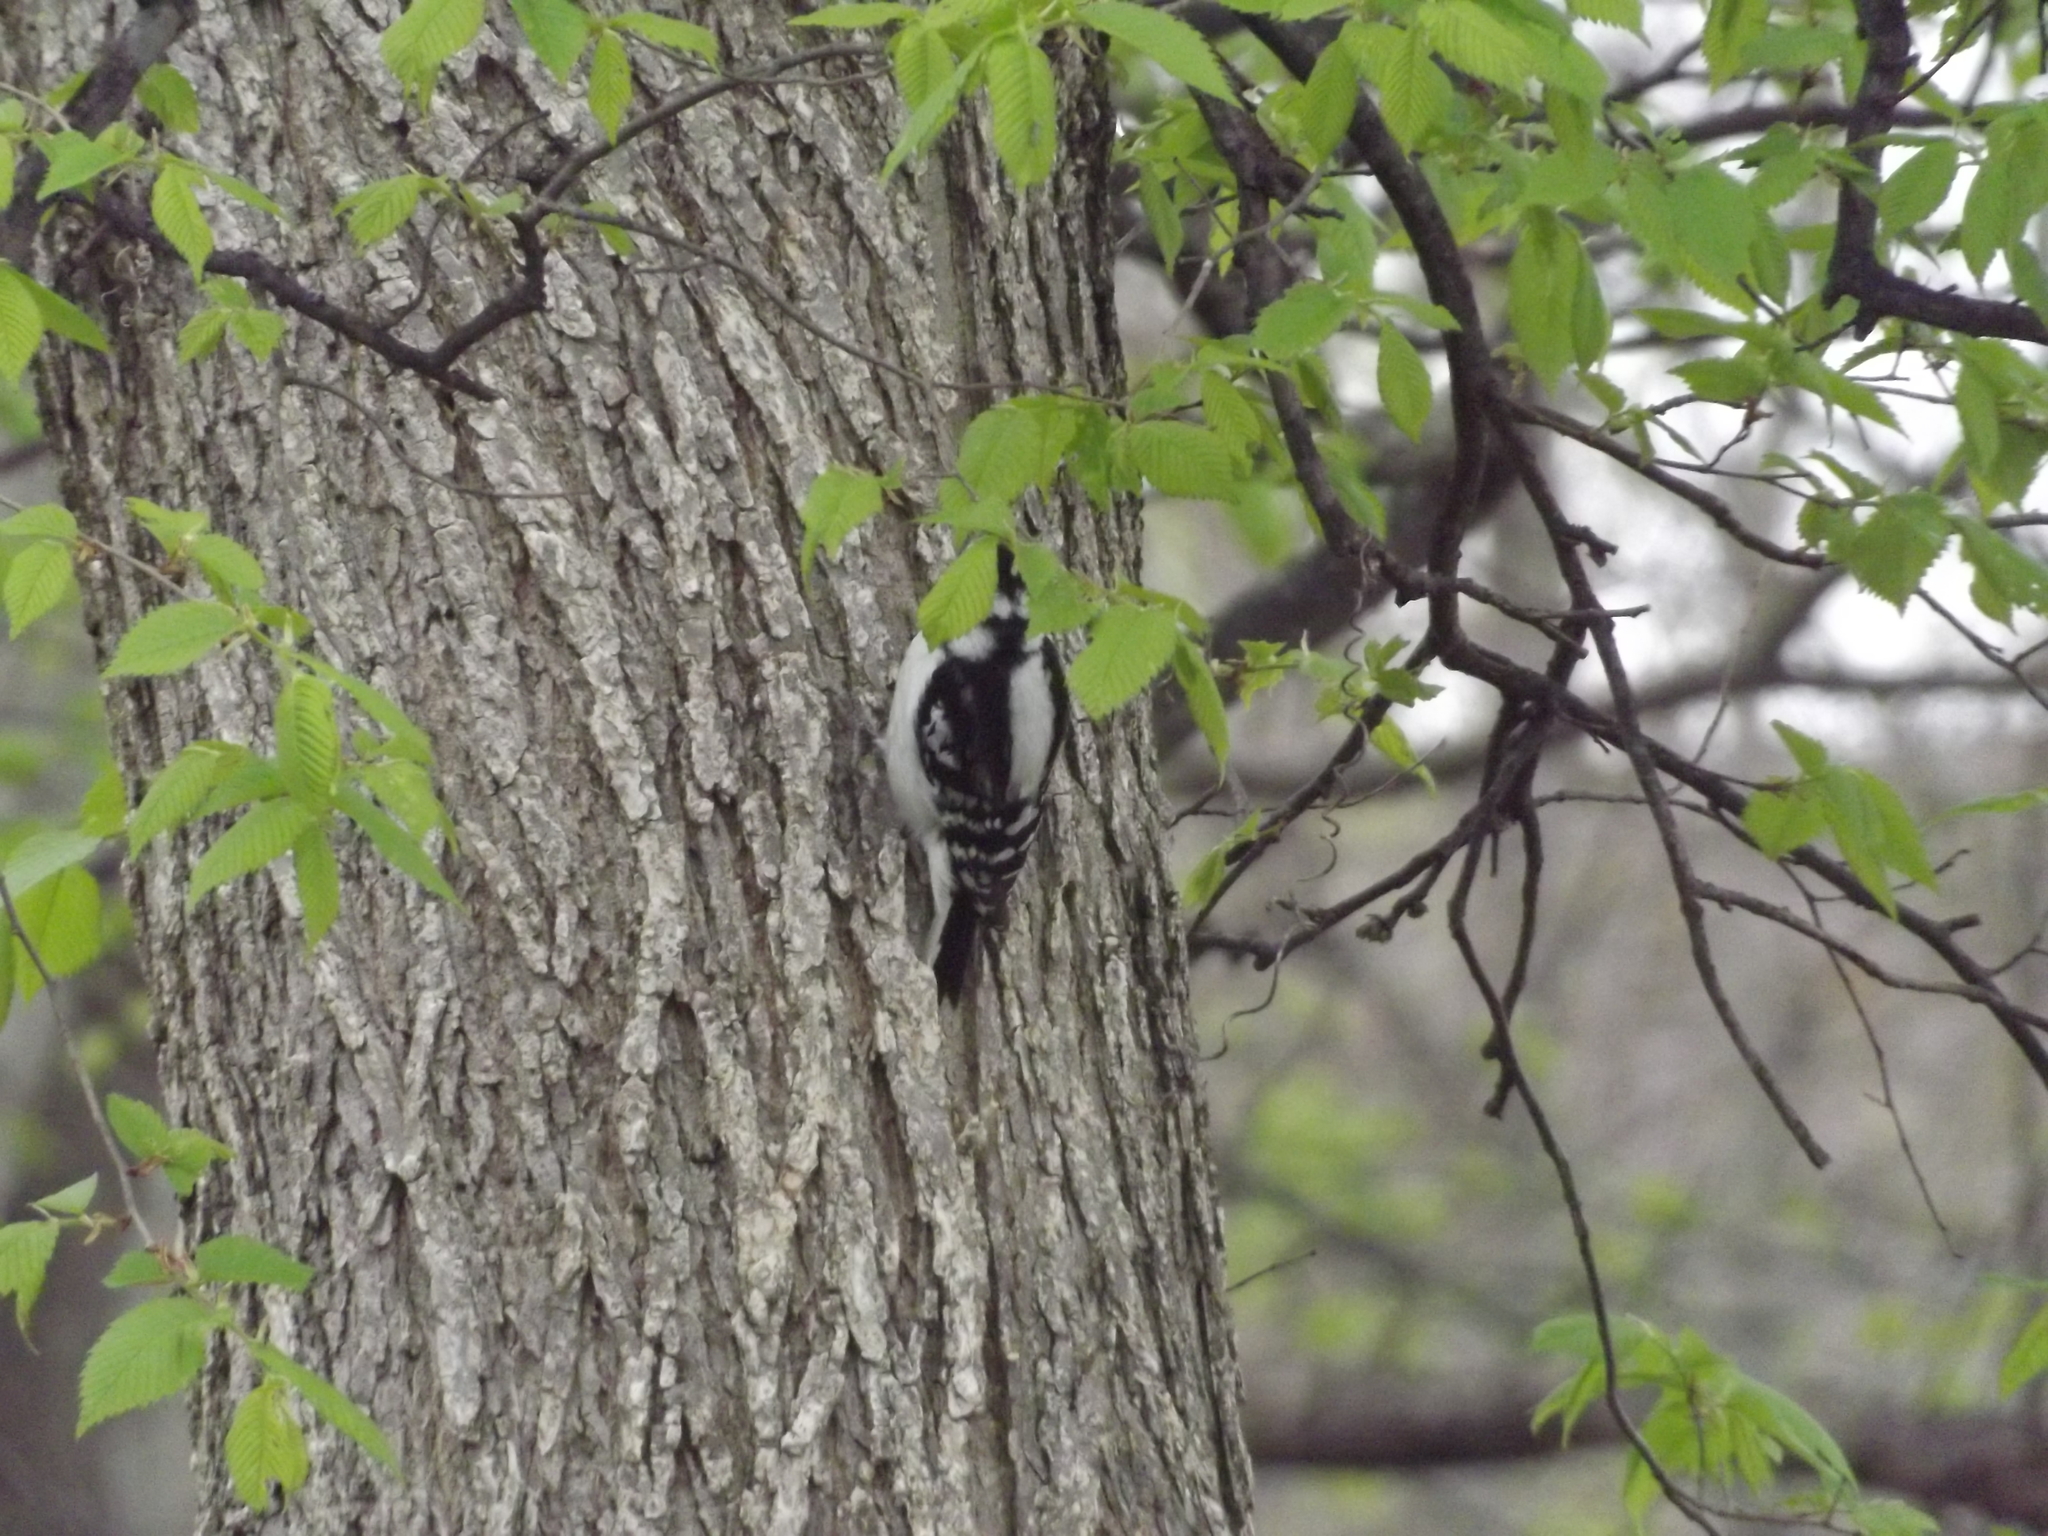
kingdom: Animalia
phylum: Chordata
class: Aves
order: Piciformes
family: Picidae
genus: Dryobates
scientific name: Dryobates pubescens
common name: Downy woodpecker
